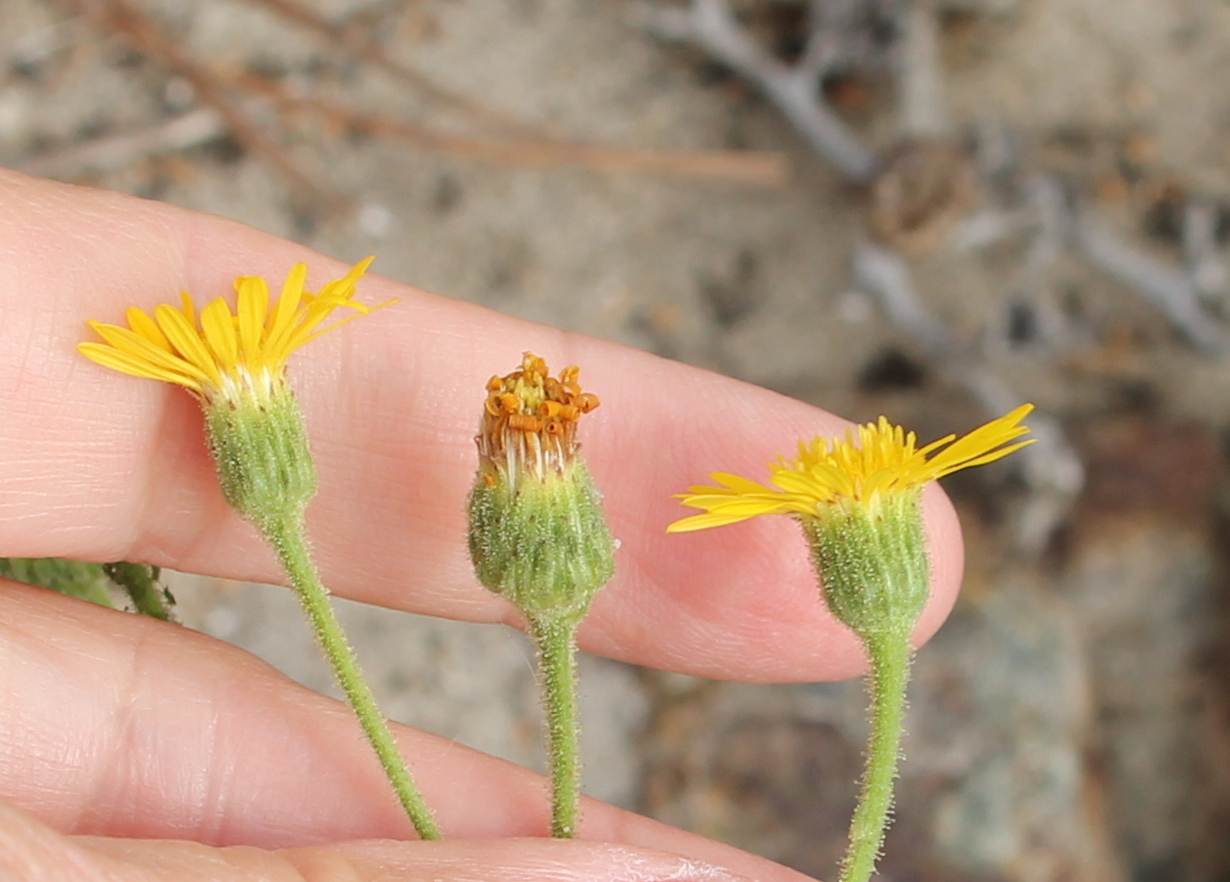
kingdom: Plantae
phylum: Tracheophyta
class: Magnoliopsida
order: Asterales
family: Asteraceae
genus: Heterotheca
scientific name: Heterotheca grandiflora
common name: Telegraphweed
